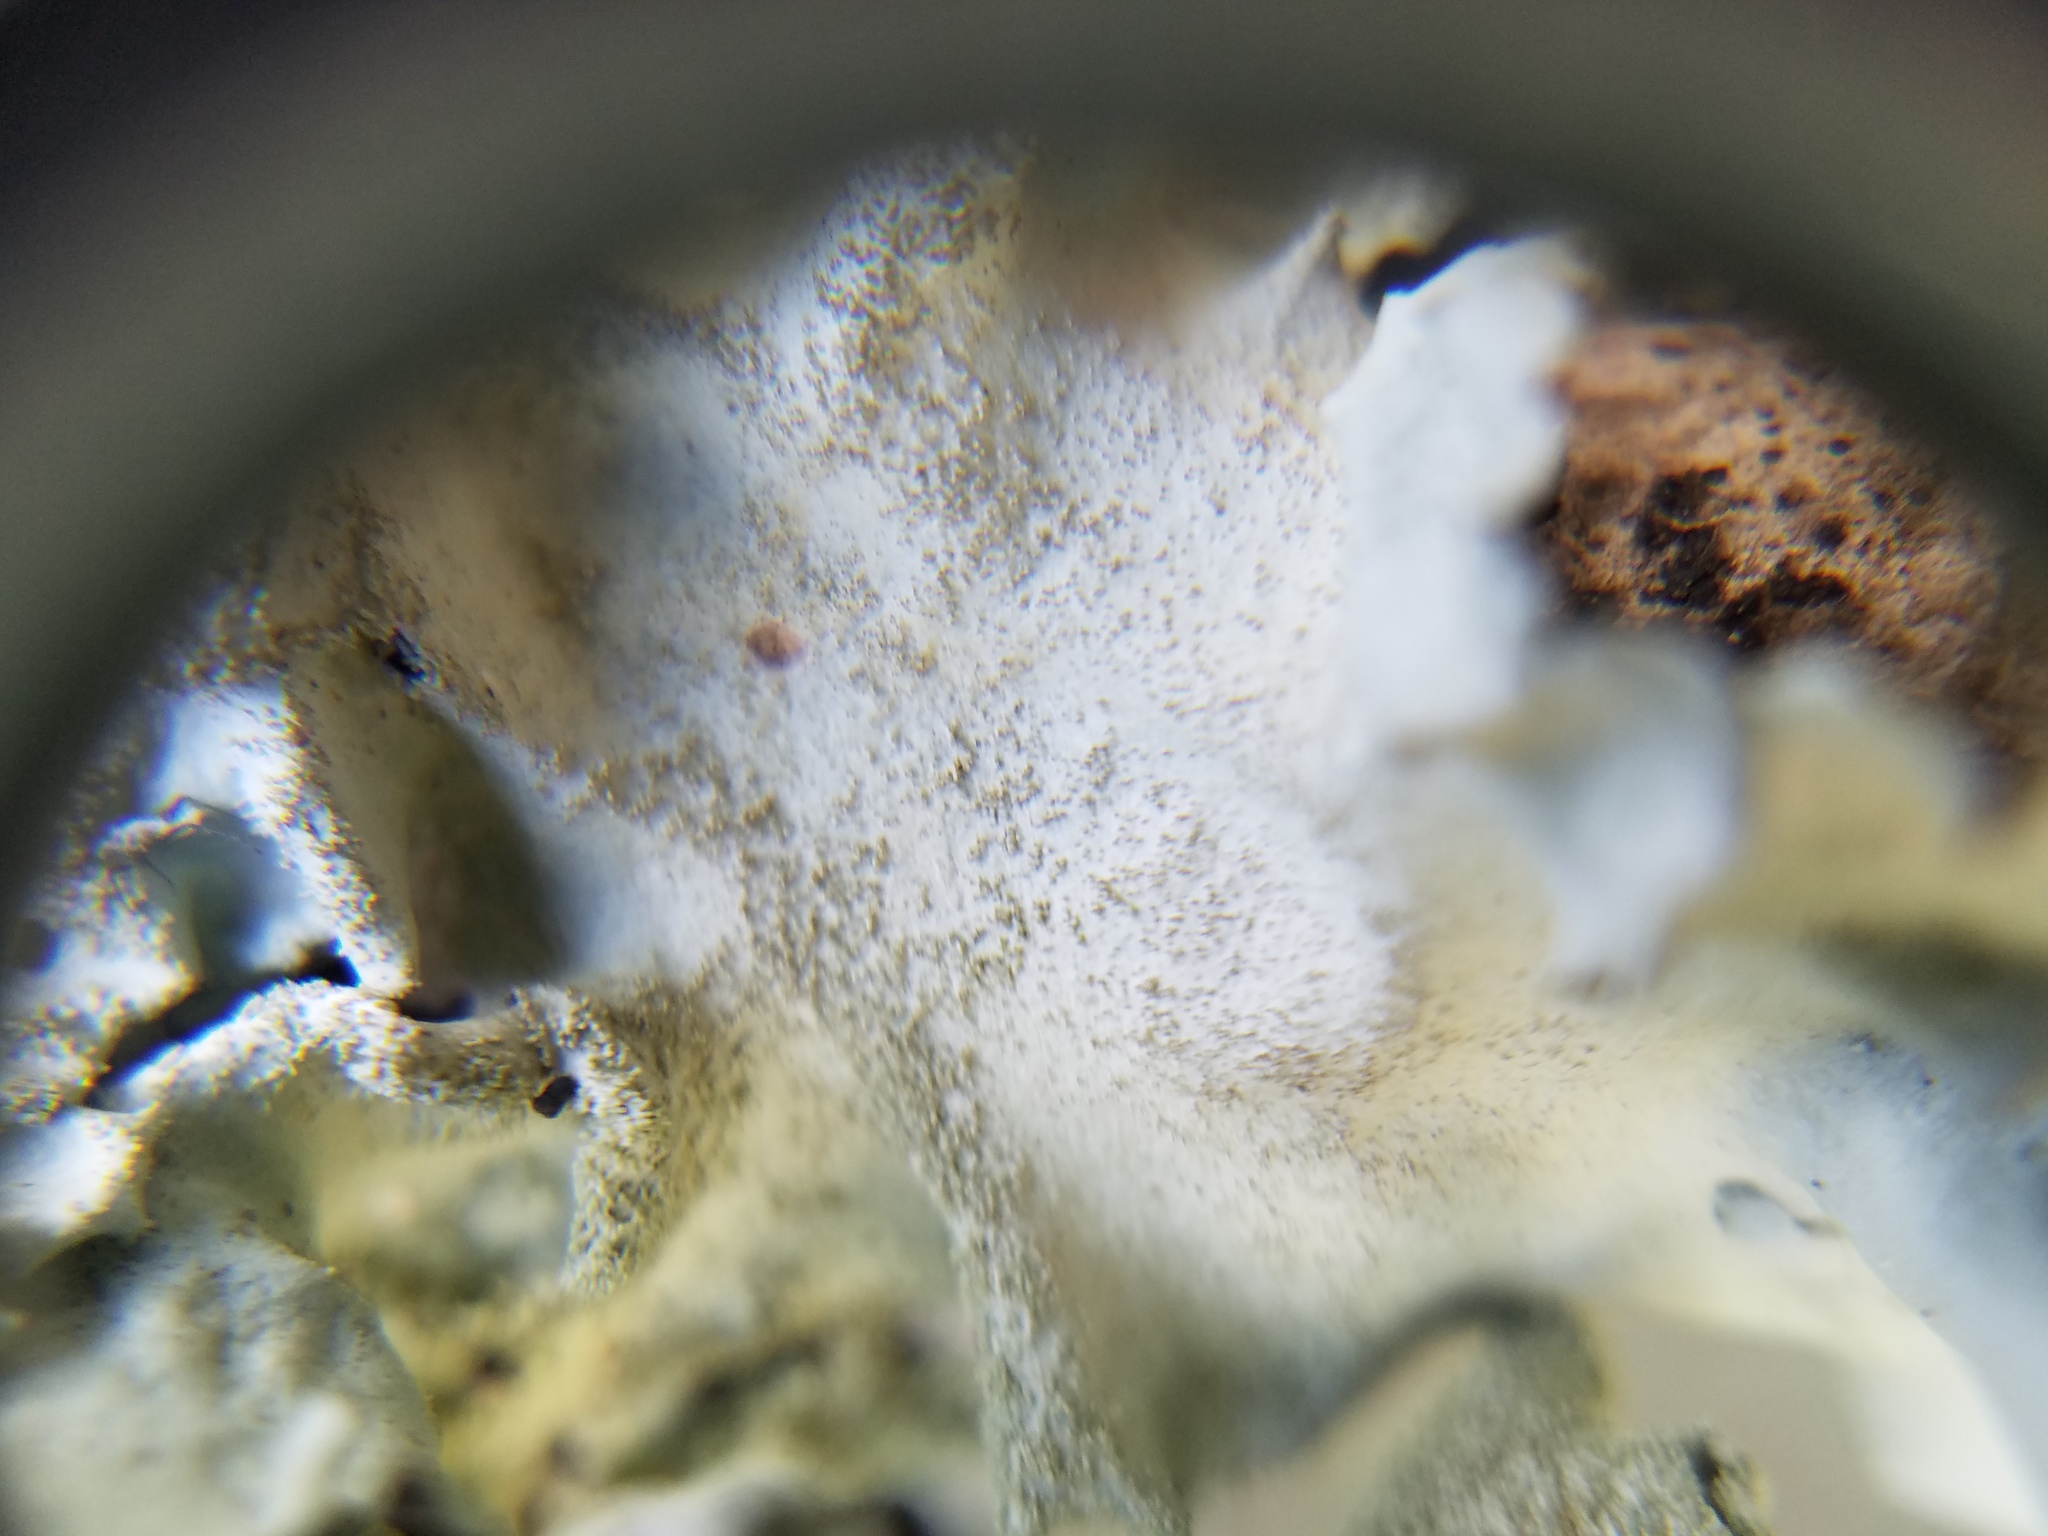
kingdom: Fungi
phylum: Ascomycota
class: Lecanoromycetes
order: Lecanorales
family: Parmeliaceae
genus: Parmotrema
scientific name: Parmotrema tinctorum
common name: Old gray ruffles
